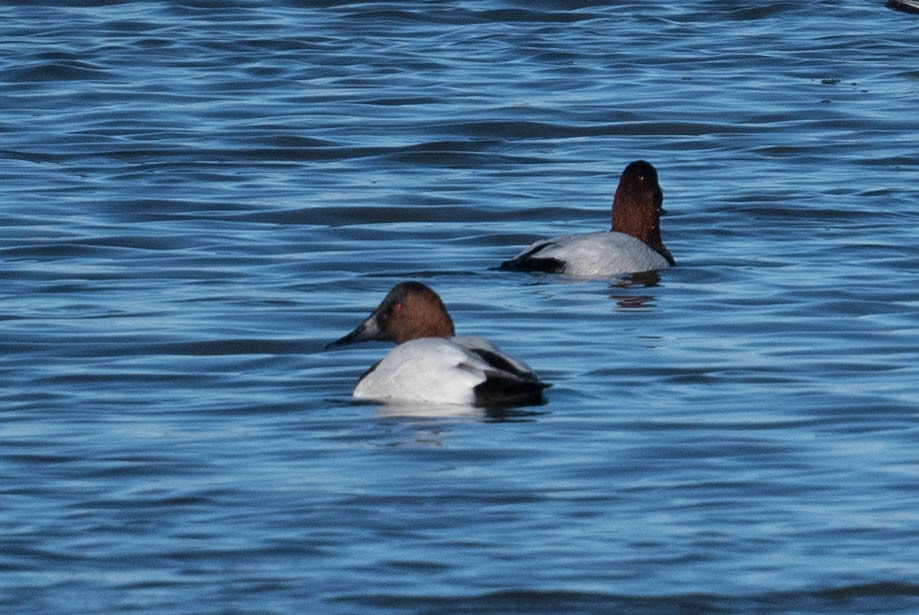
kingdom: Animalia
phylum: Chordata
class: Aves
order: Anseriformes
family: Anatidae
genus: Aythya
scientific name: Aythya valisineria
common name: Canvasback
